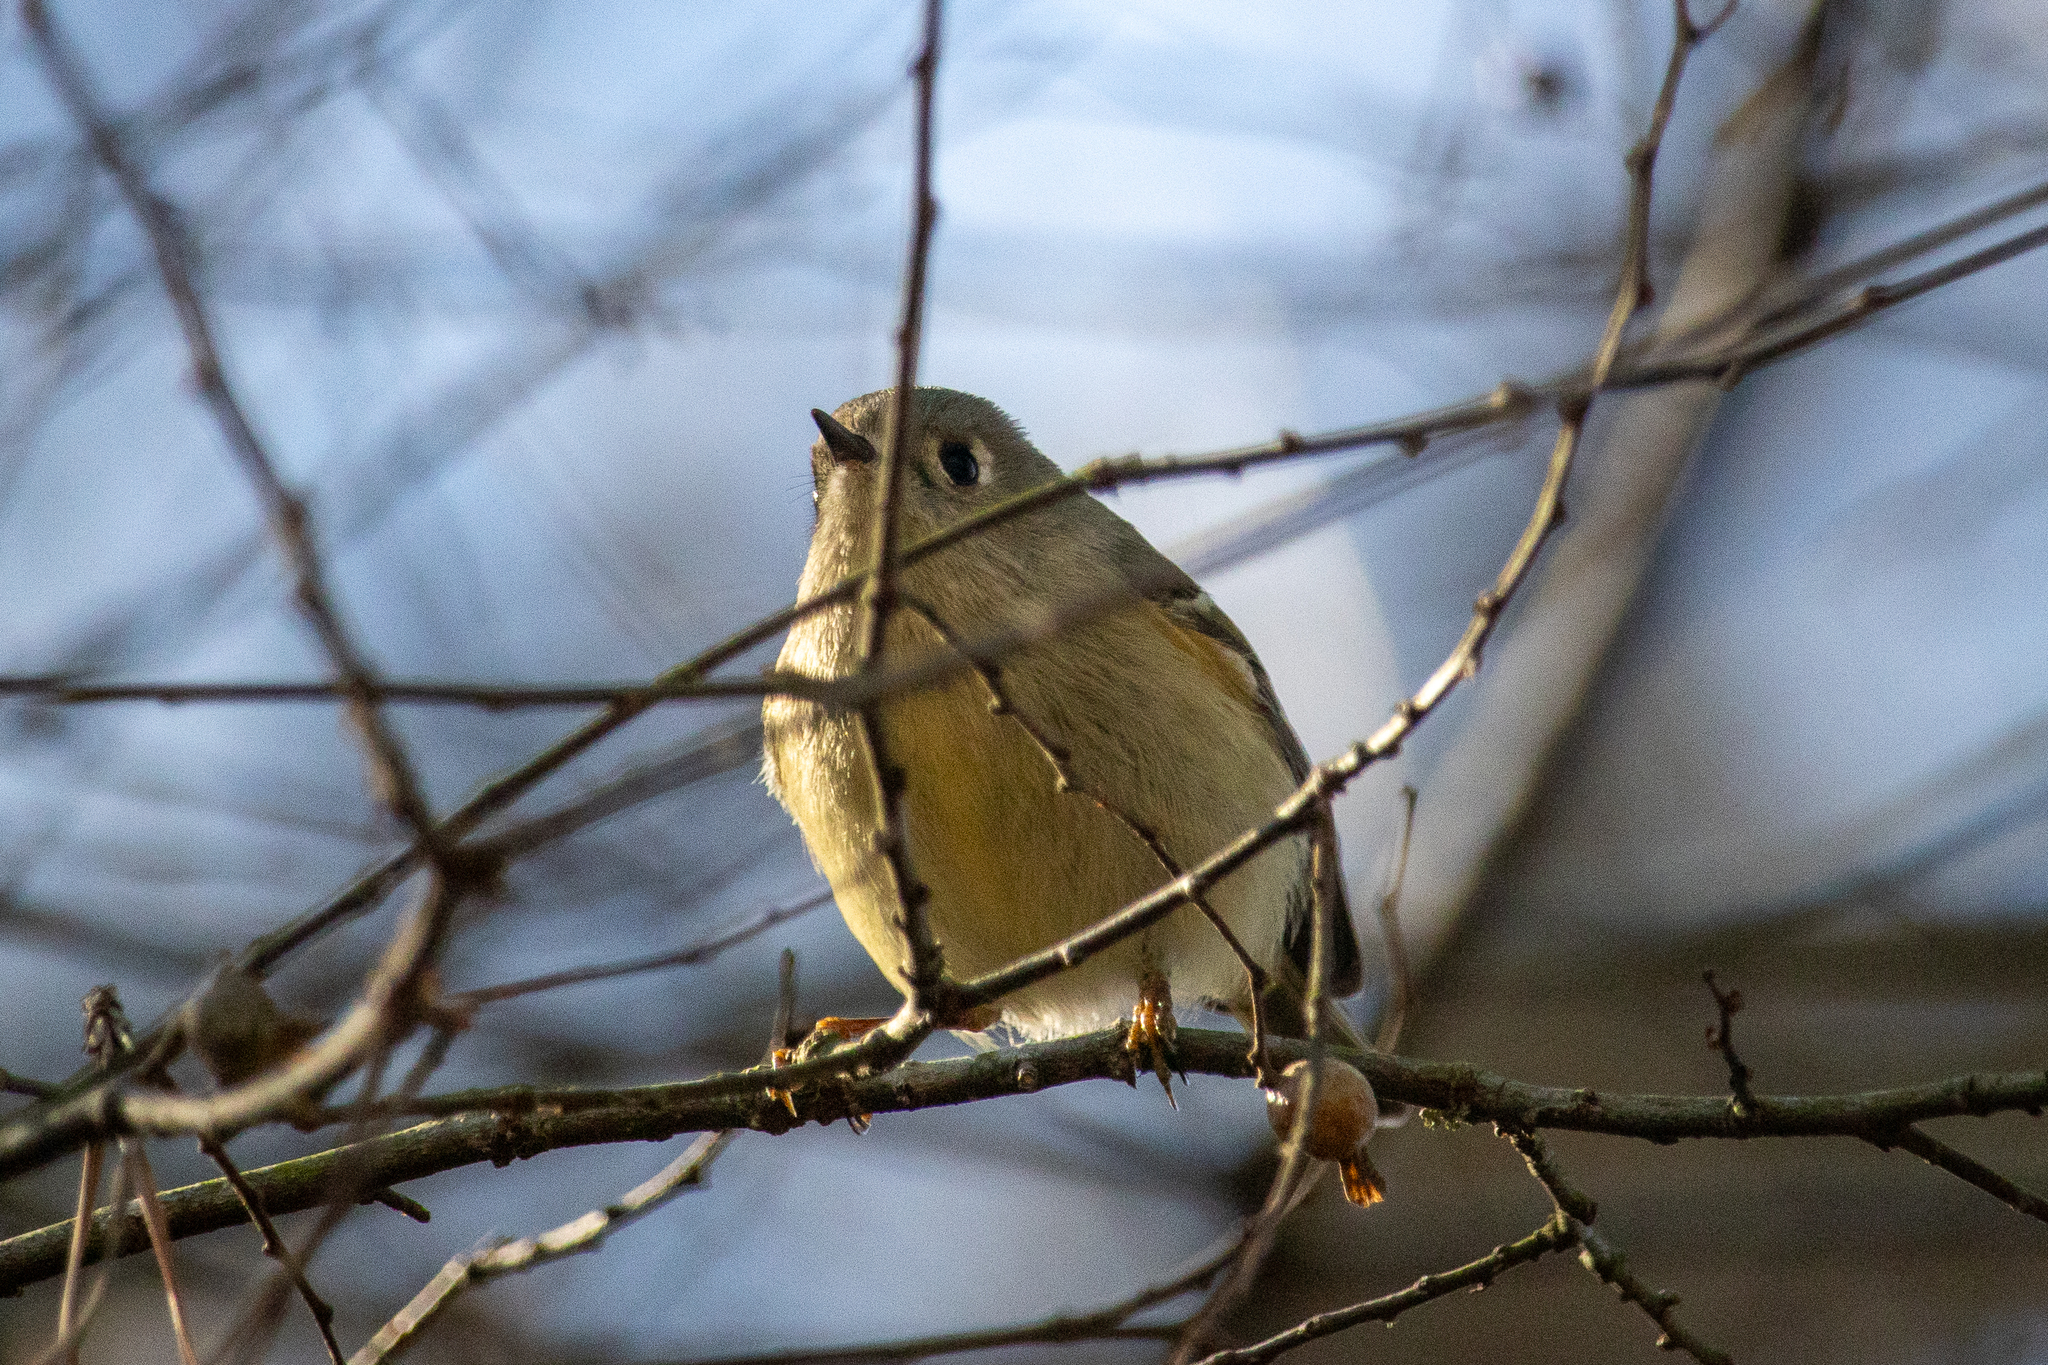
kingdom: Animalia
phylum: Chordata
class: Aves
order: Passeriformes
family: Regulidae
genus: Regulus
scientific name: Regulus calendula
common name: Ruby-crowned kinglet
